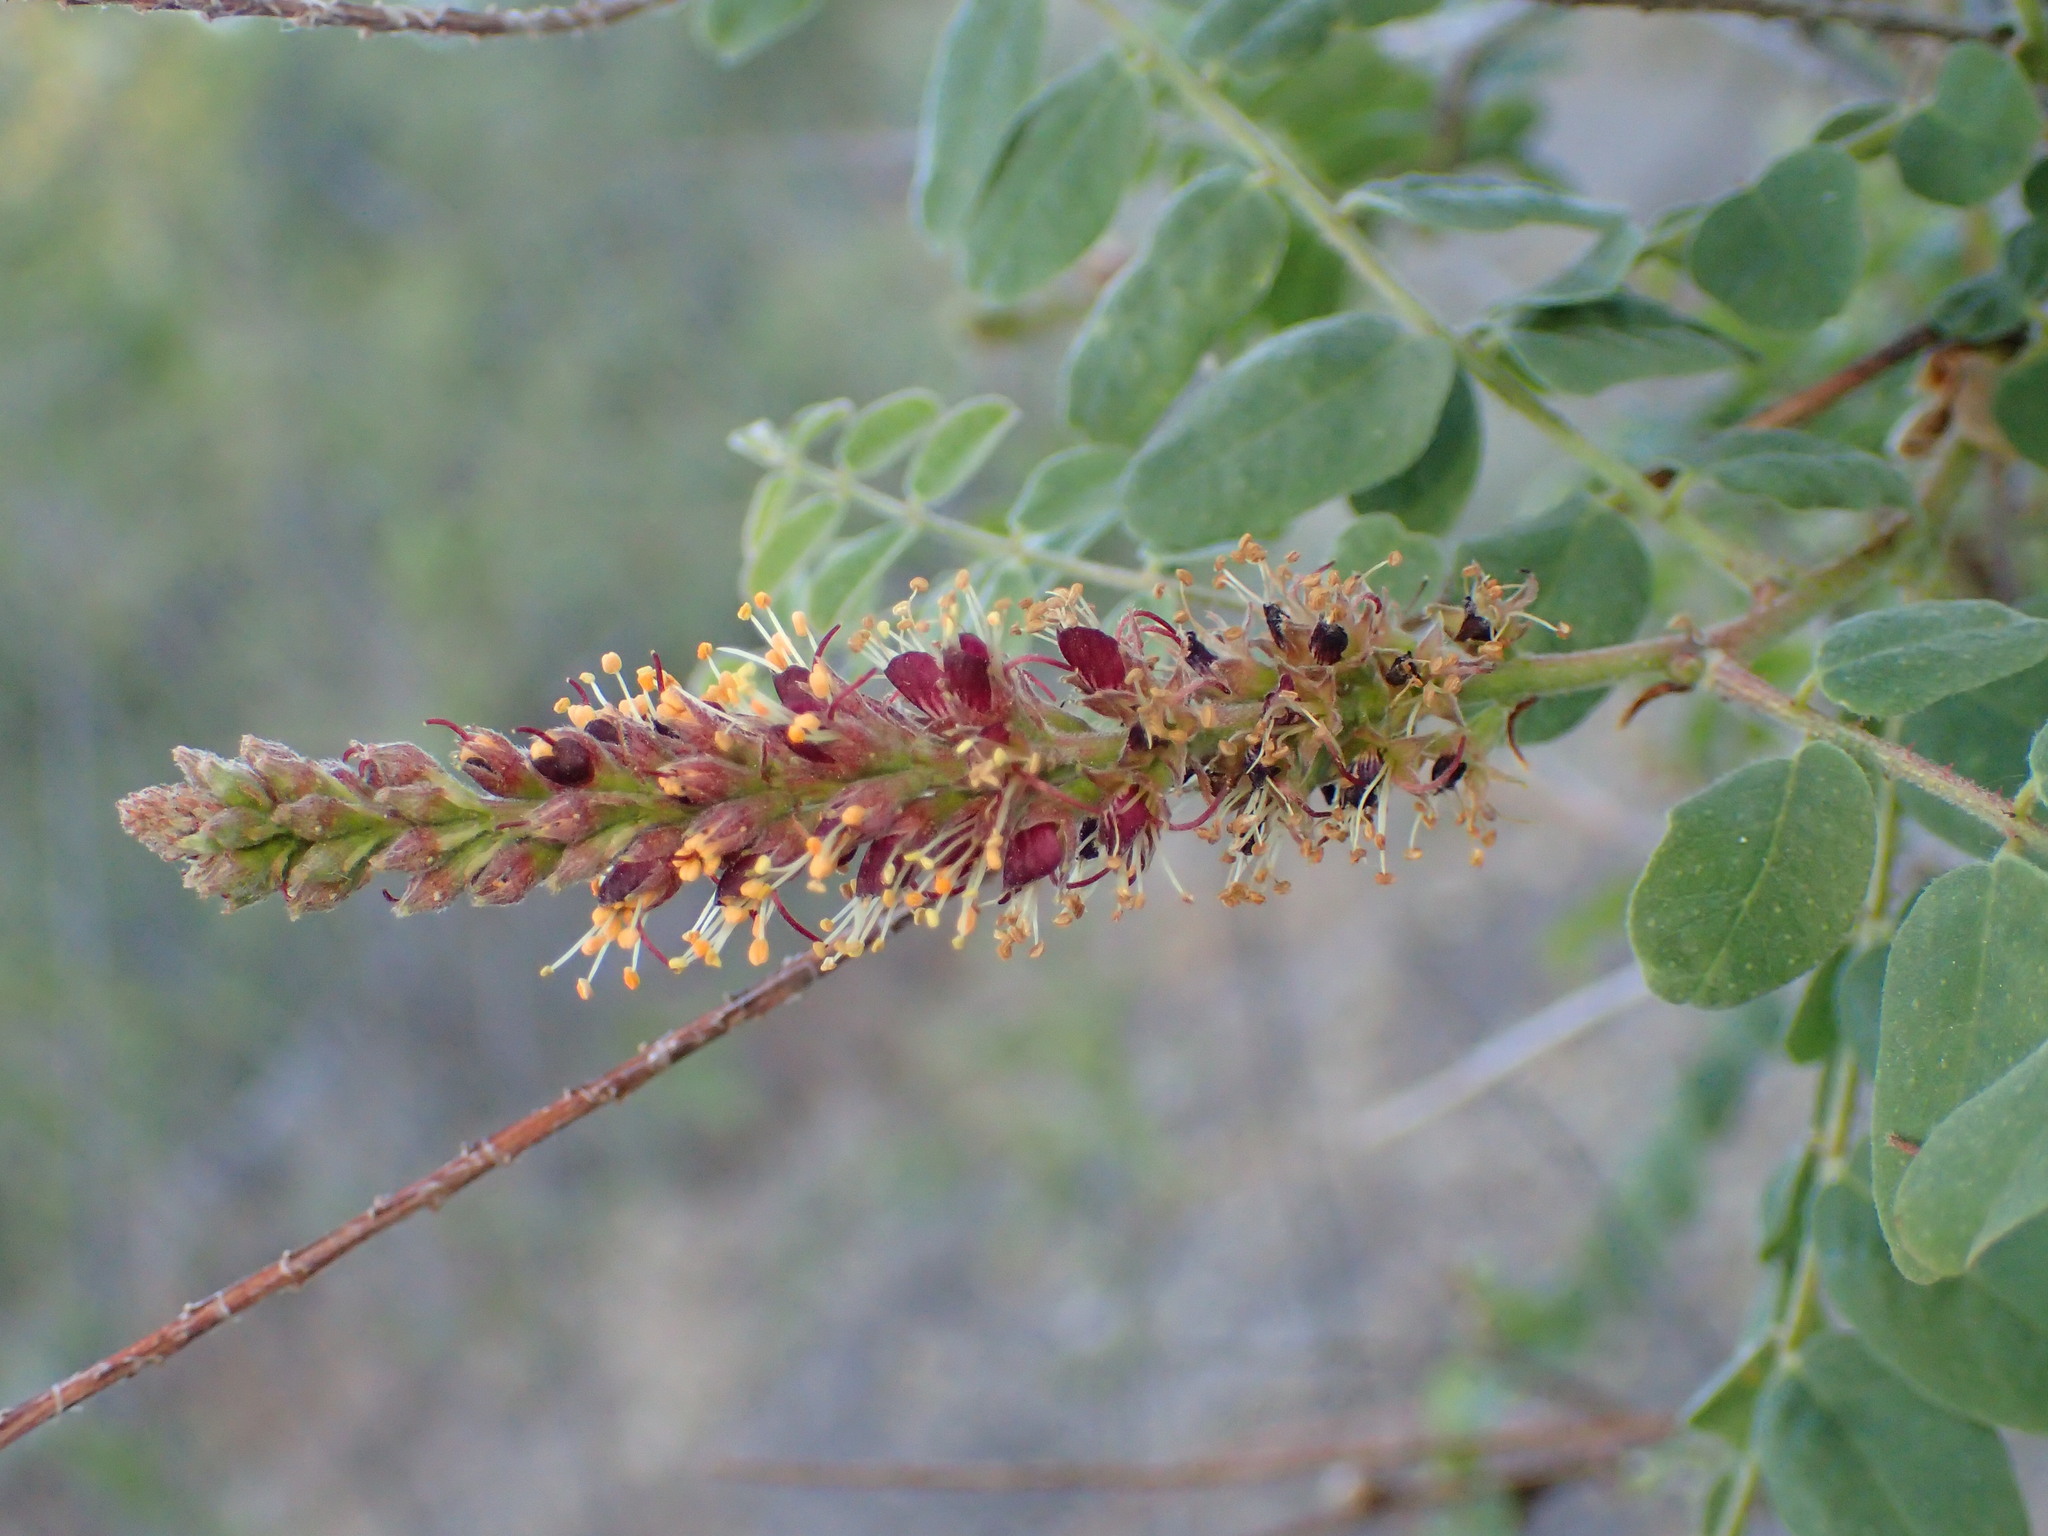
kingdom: Plantae
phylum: Tracheophyta
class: Magnoliopsida
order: Fabales
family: Fabaceae
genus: Amorpha
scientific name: Amorpha californica
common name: California indigobush
